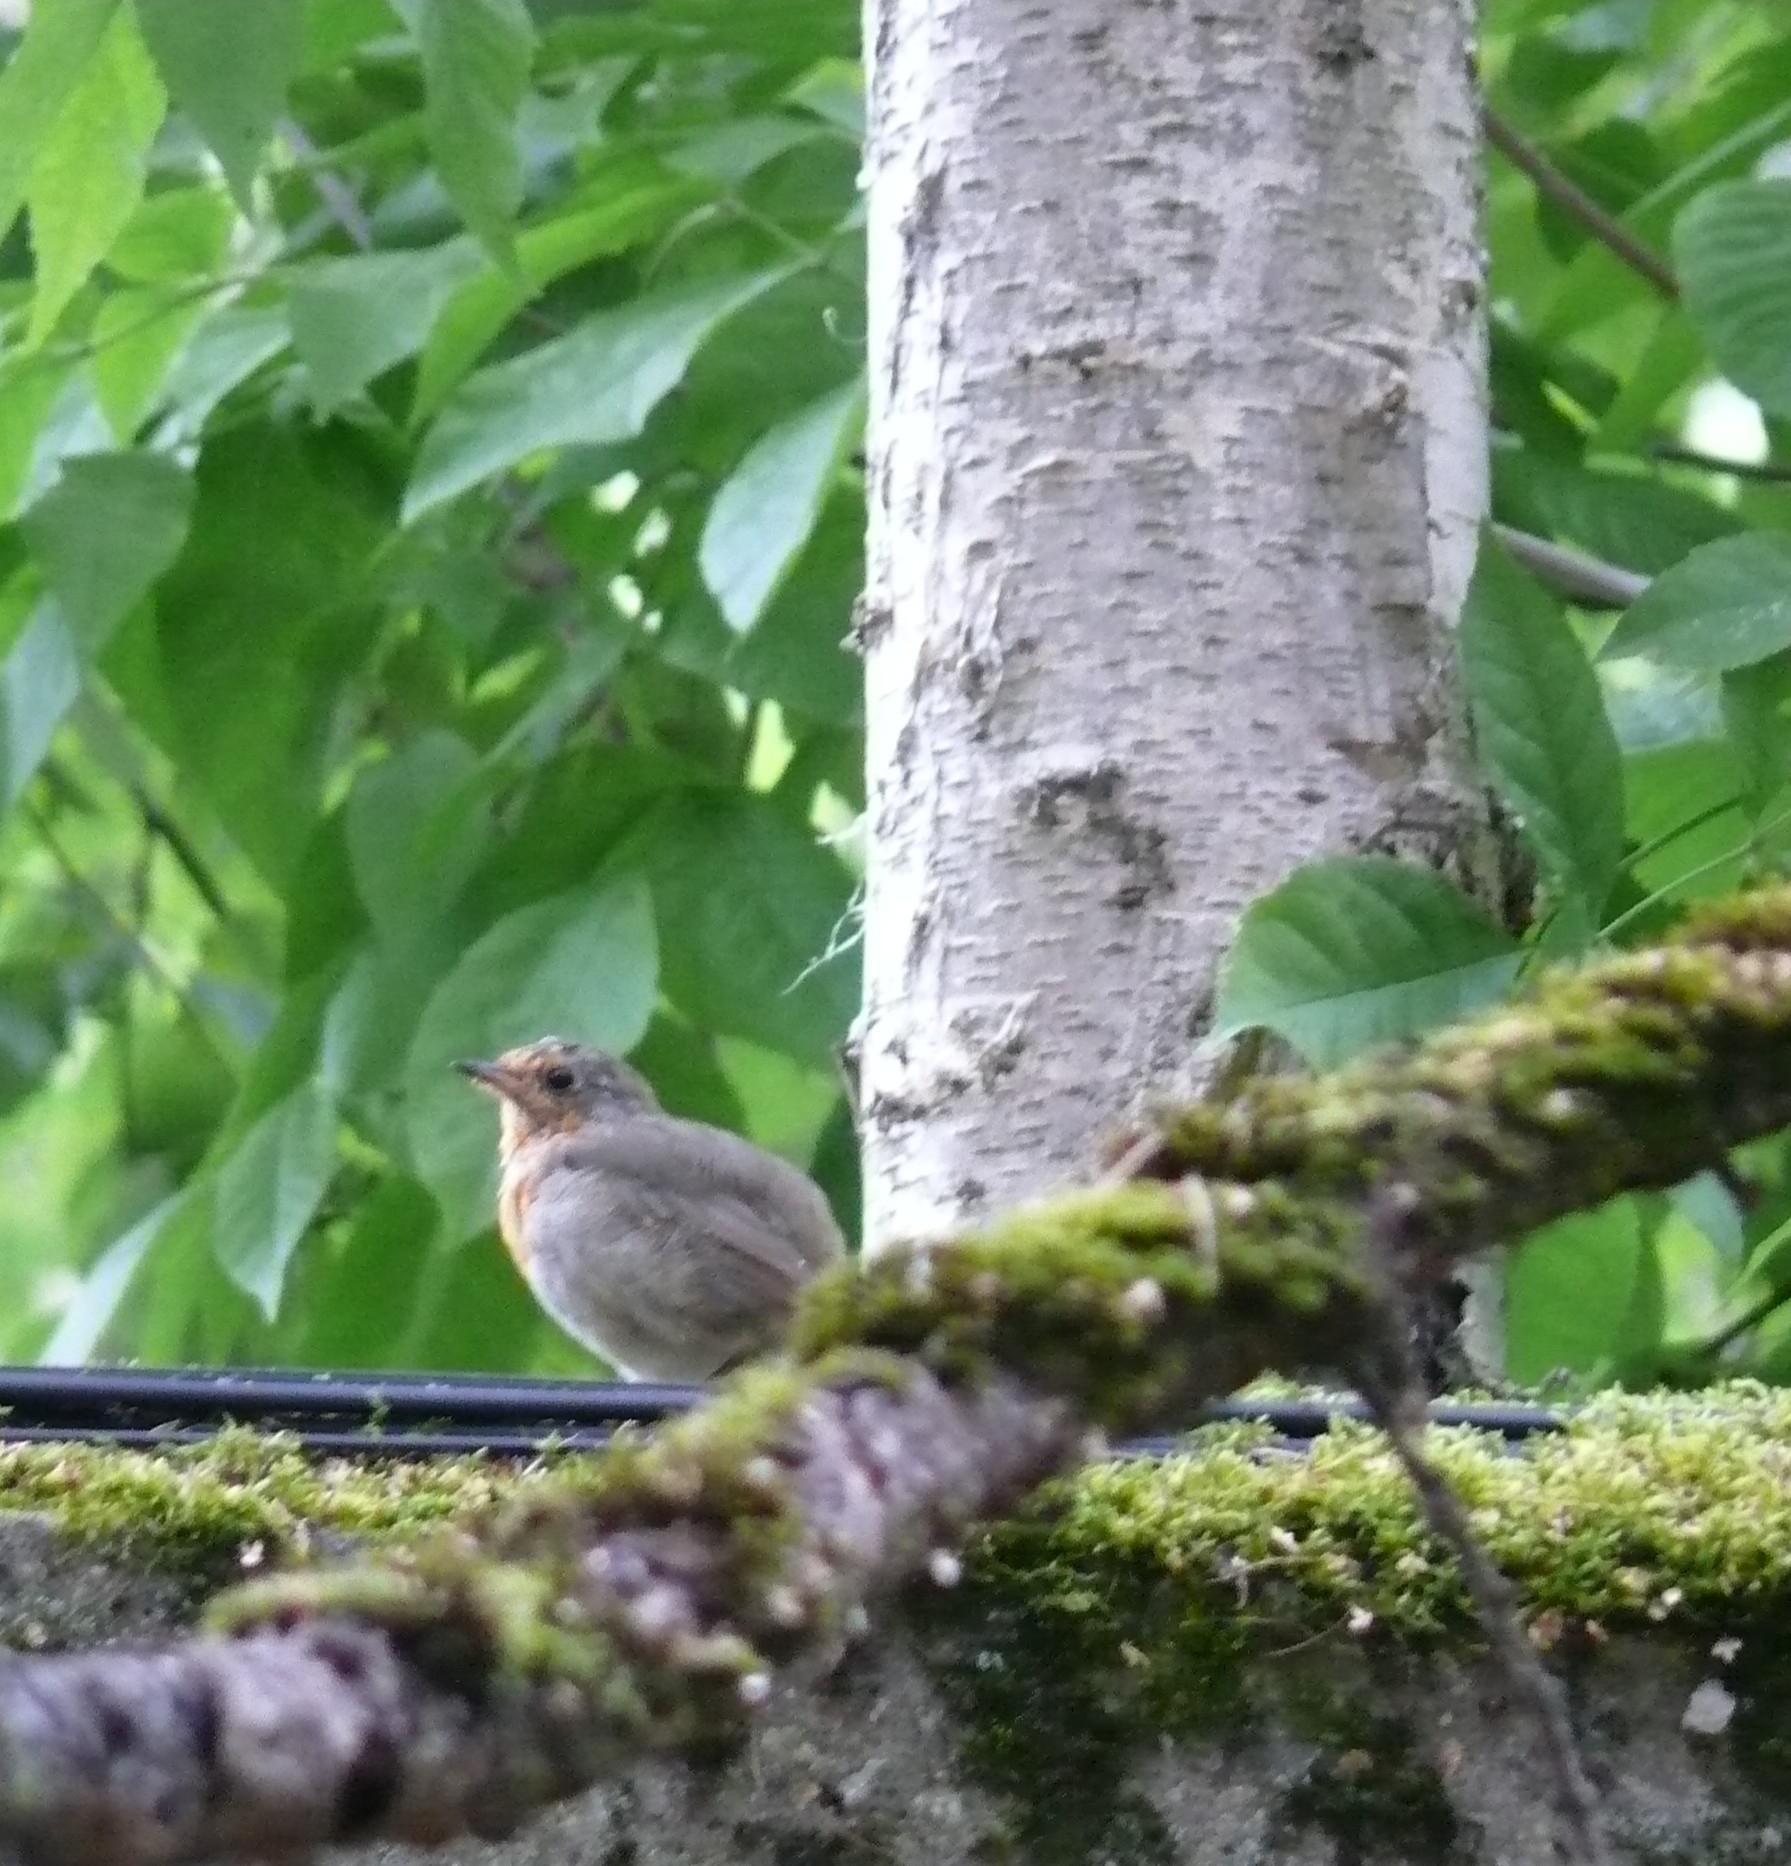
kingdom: Animalia
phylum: Chordata
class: Aves
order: Passeriformes
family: Muscicapidae
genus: Erithacus
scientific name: Erithacus rubecula
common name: European robin
